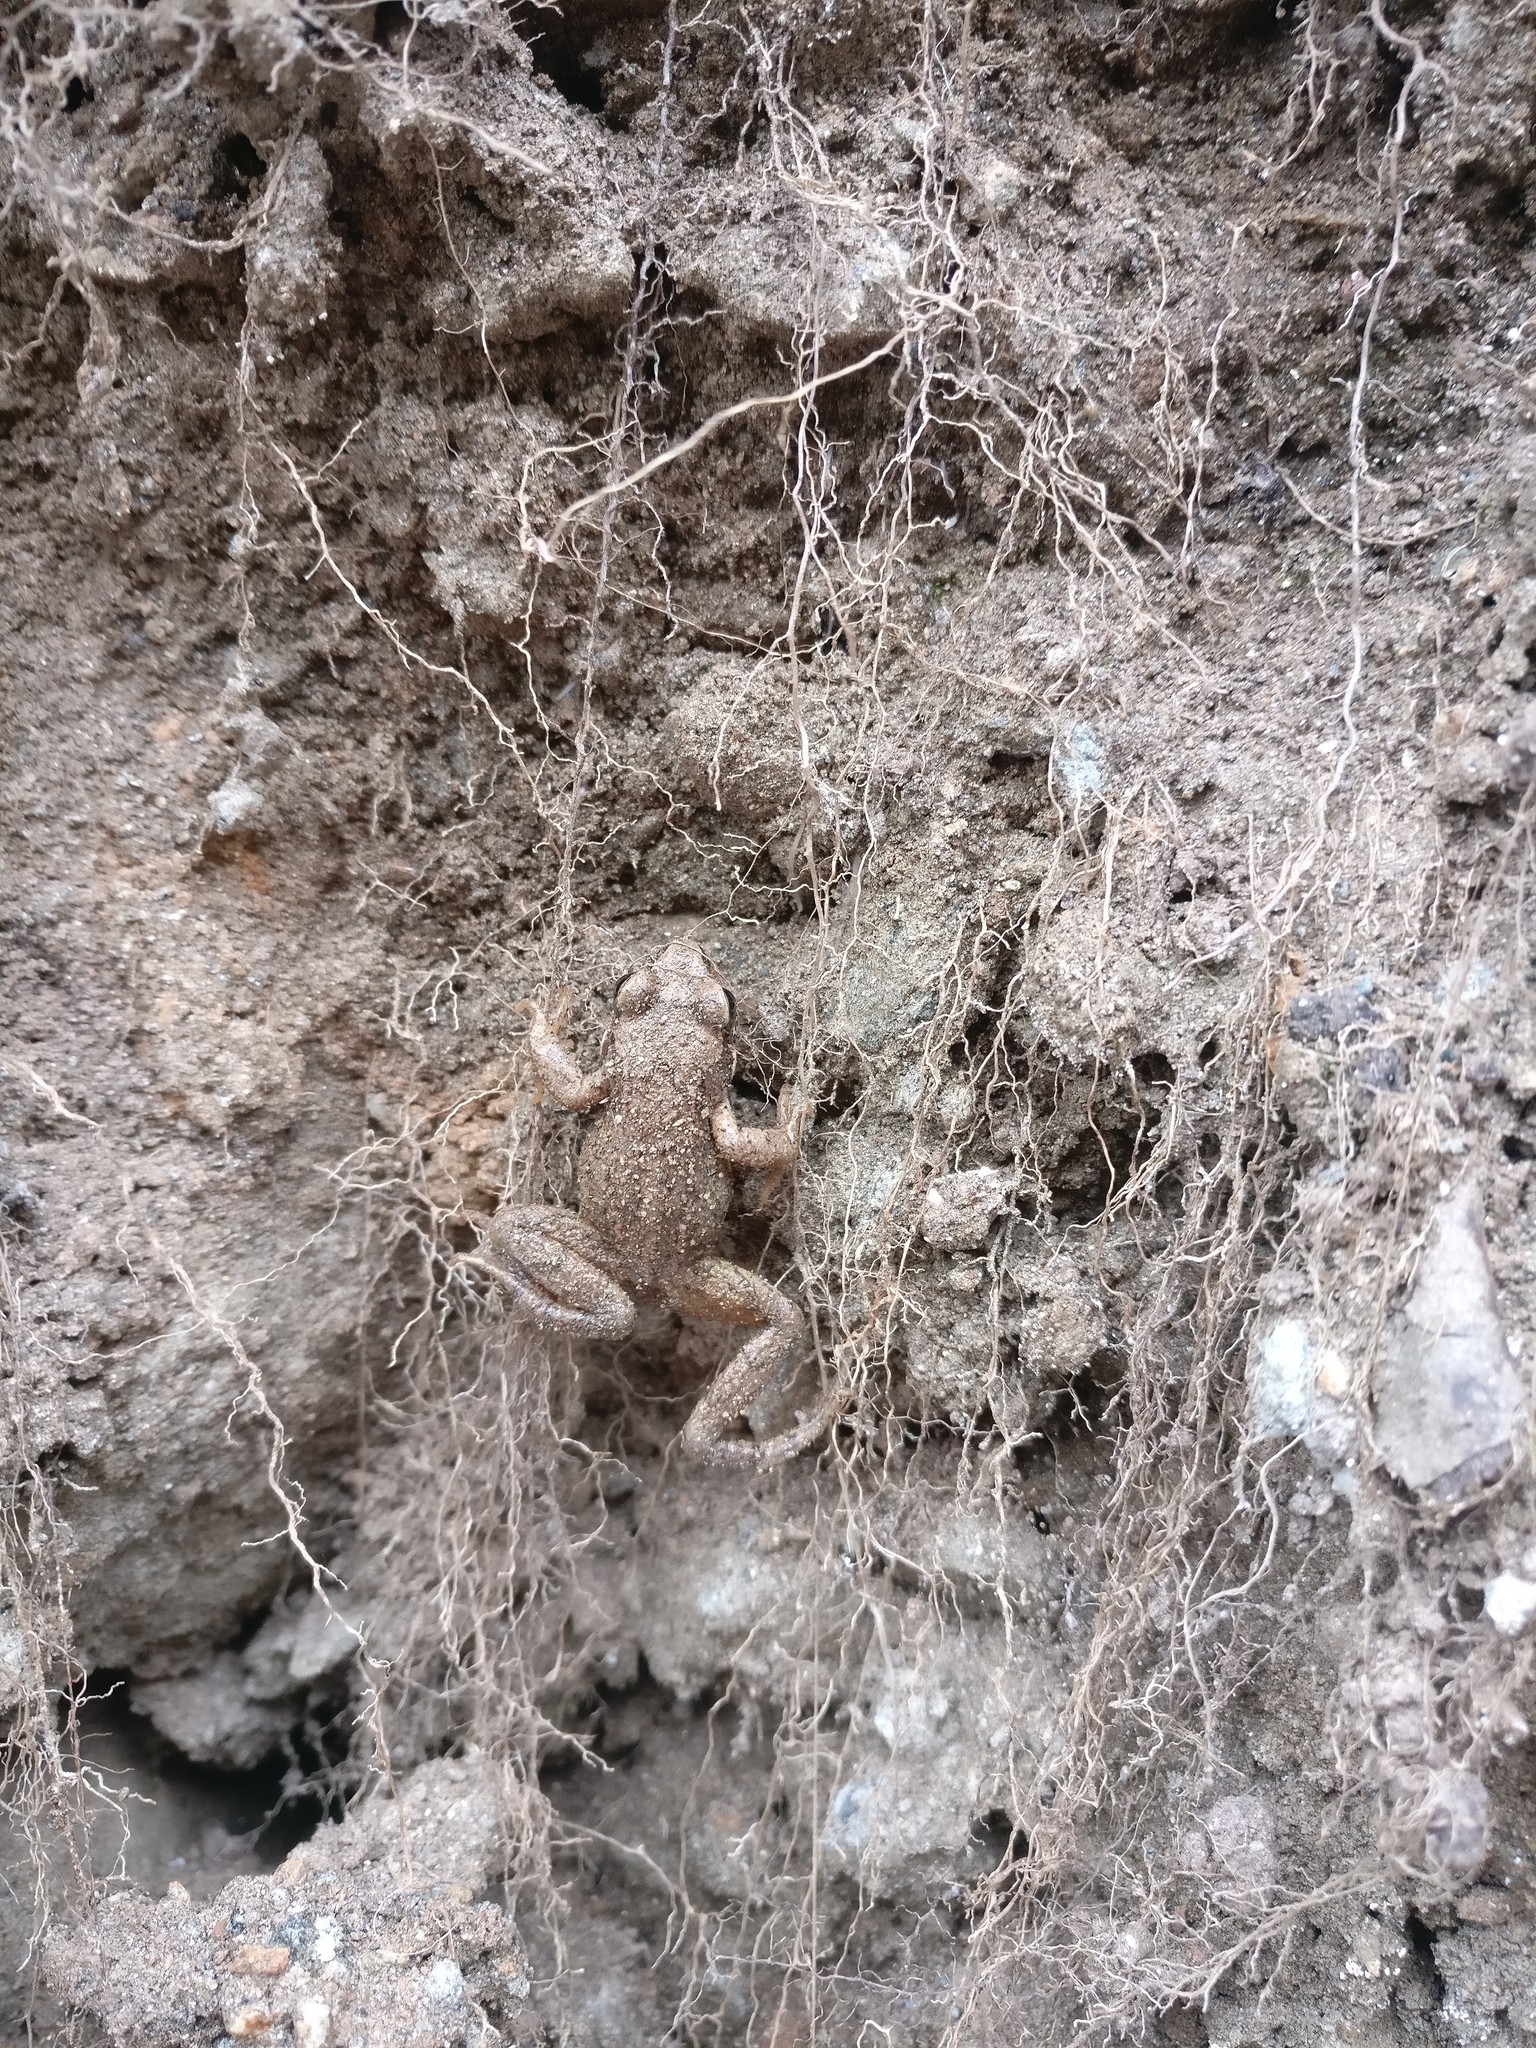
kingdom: Animalia
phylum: Chordata
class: Amphibia
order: Anura
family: Ranidae
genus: Rana
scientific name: Rana temporaria
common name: Common frog
